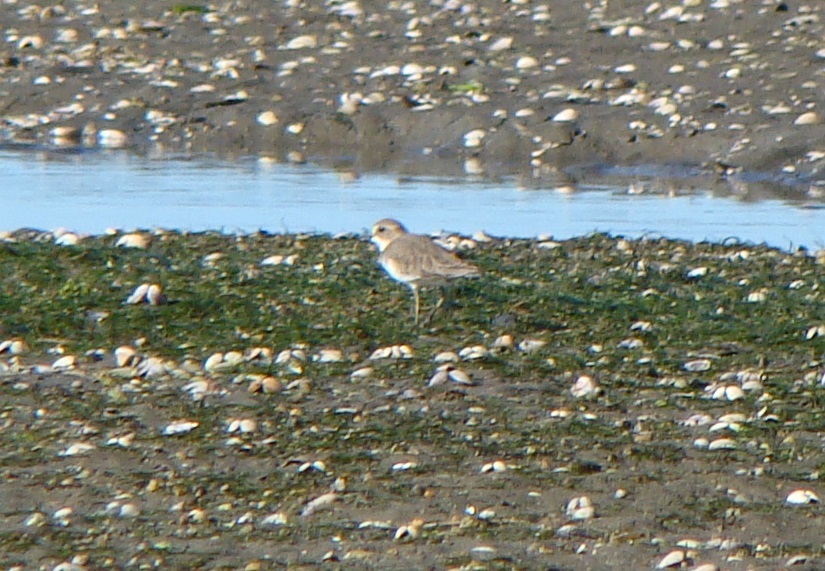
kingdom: Animalia
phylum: Chordata
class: Aves
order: Charadriiformes
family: Charadriidae
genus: Anarhynchus
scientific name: Anarhynchus
